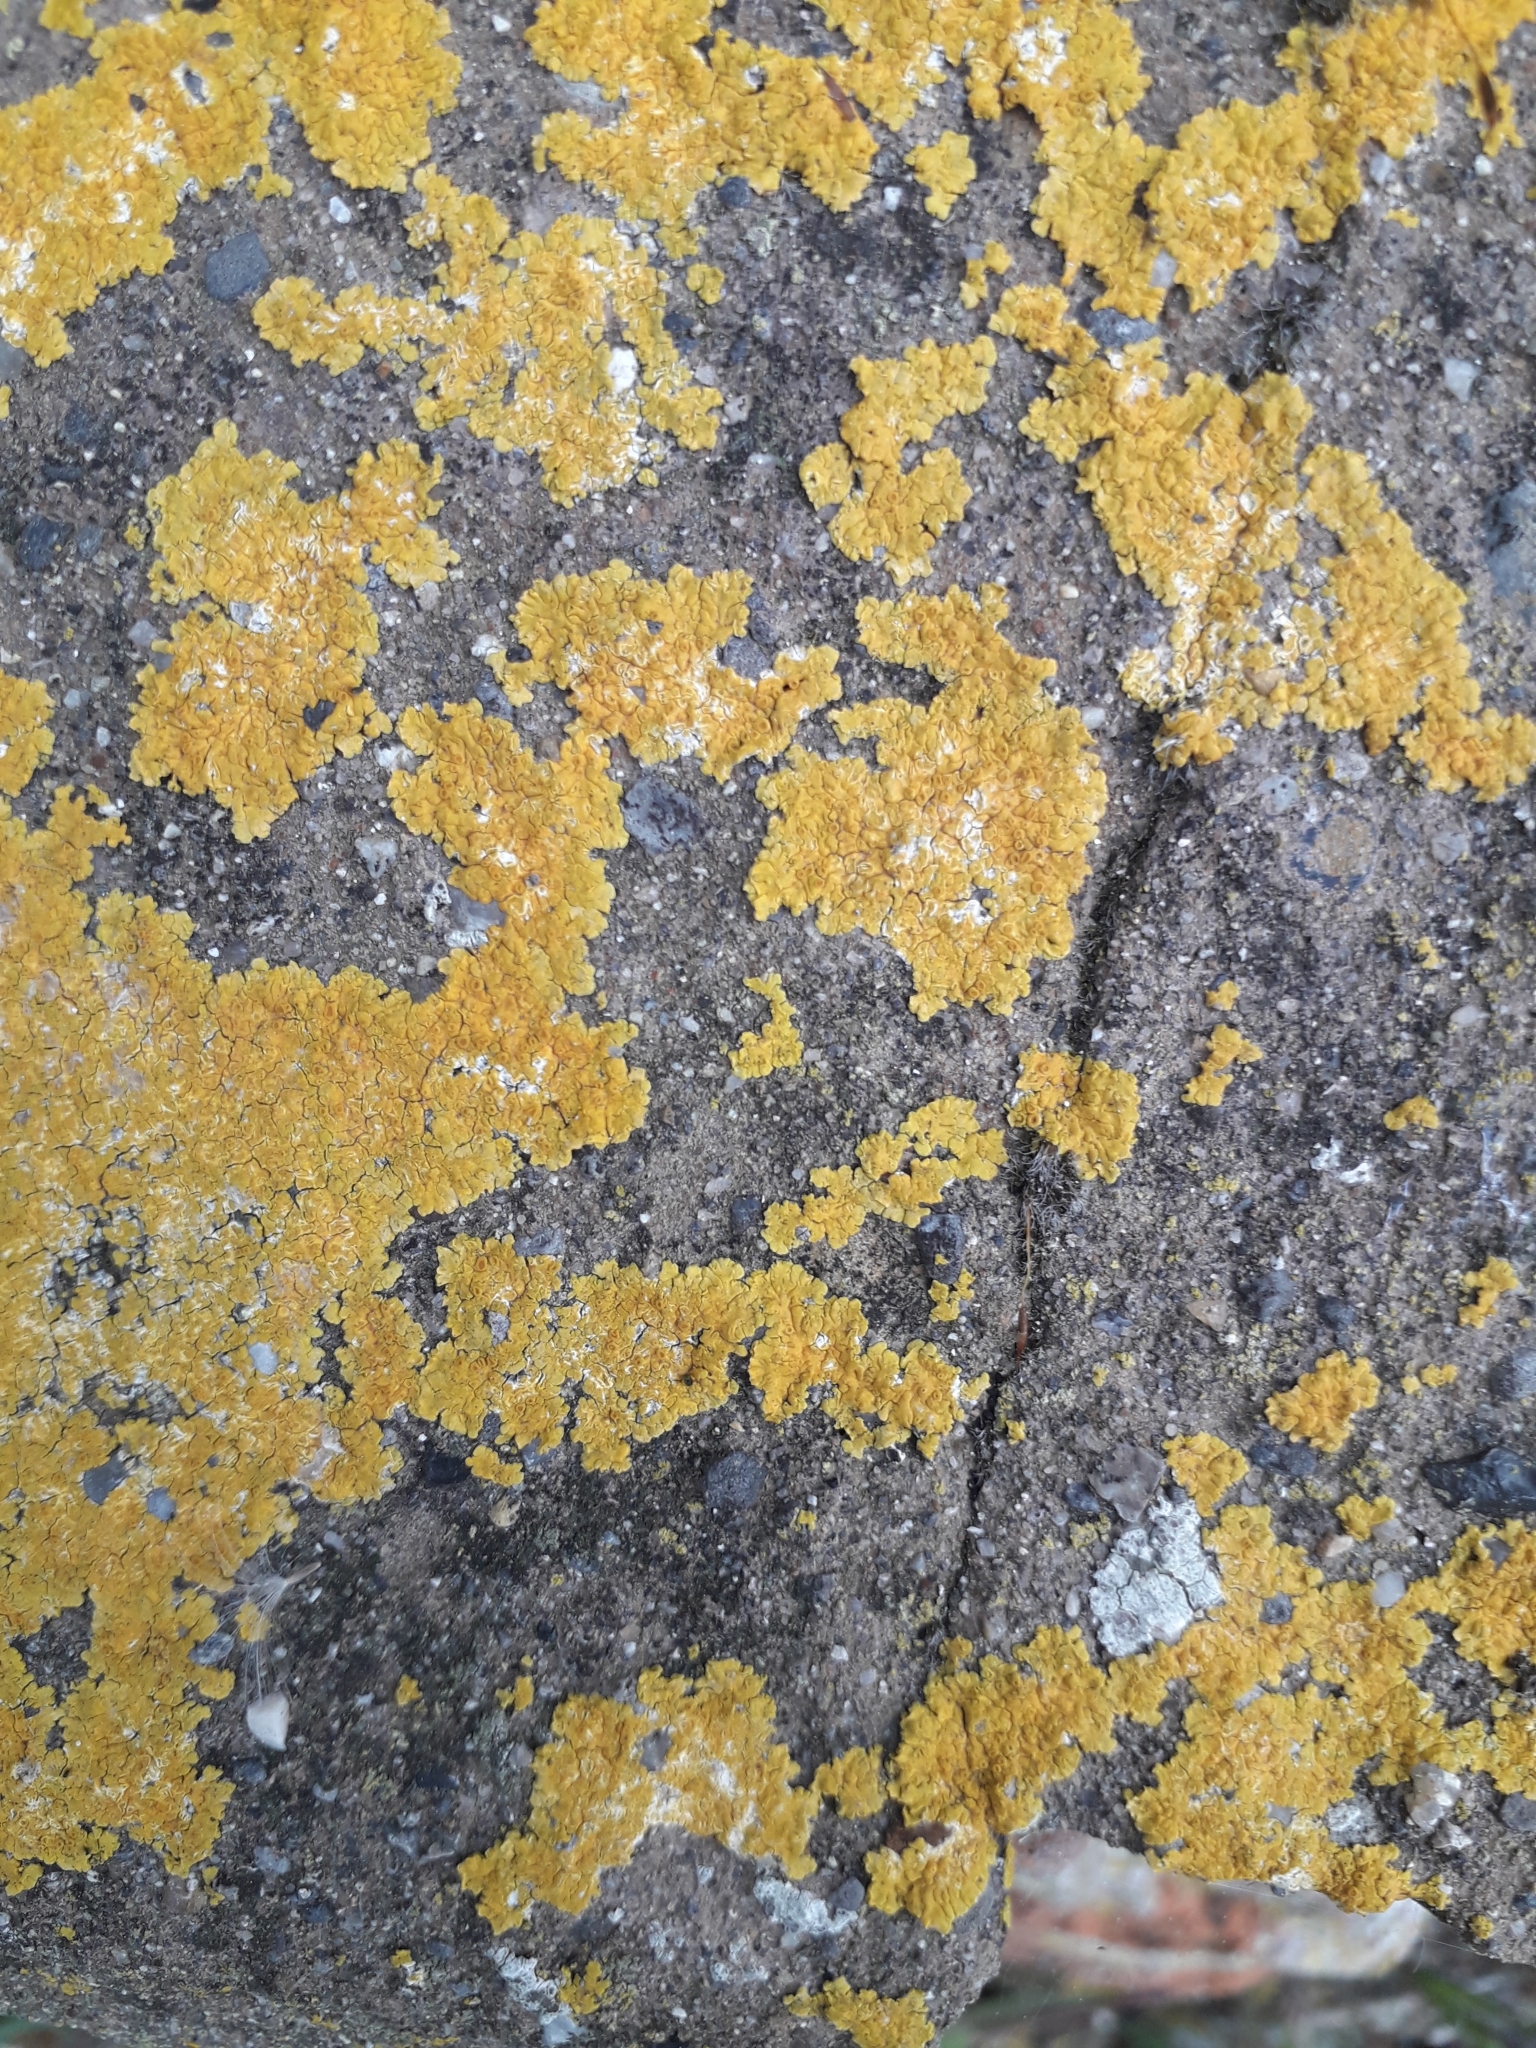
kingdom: Fungi
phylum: Ascomycota
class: Lecanoromycetes
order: Teloschistales
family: Teloschistaceae
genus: Xanthoria
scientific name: Xanthoria parietina
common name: Common orange lichen
